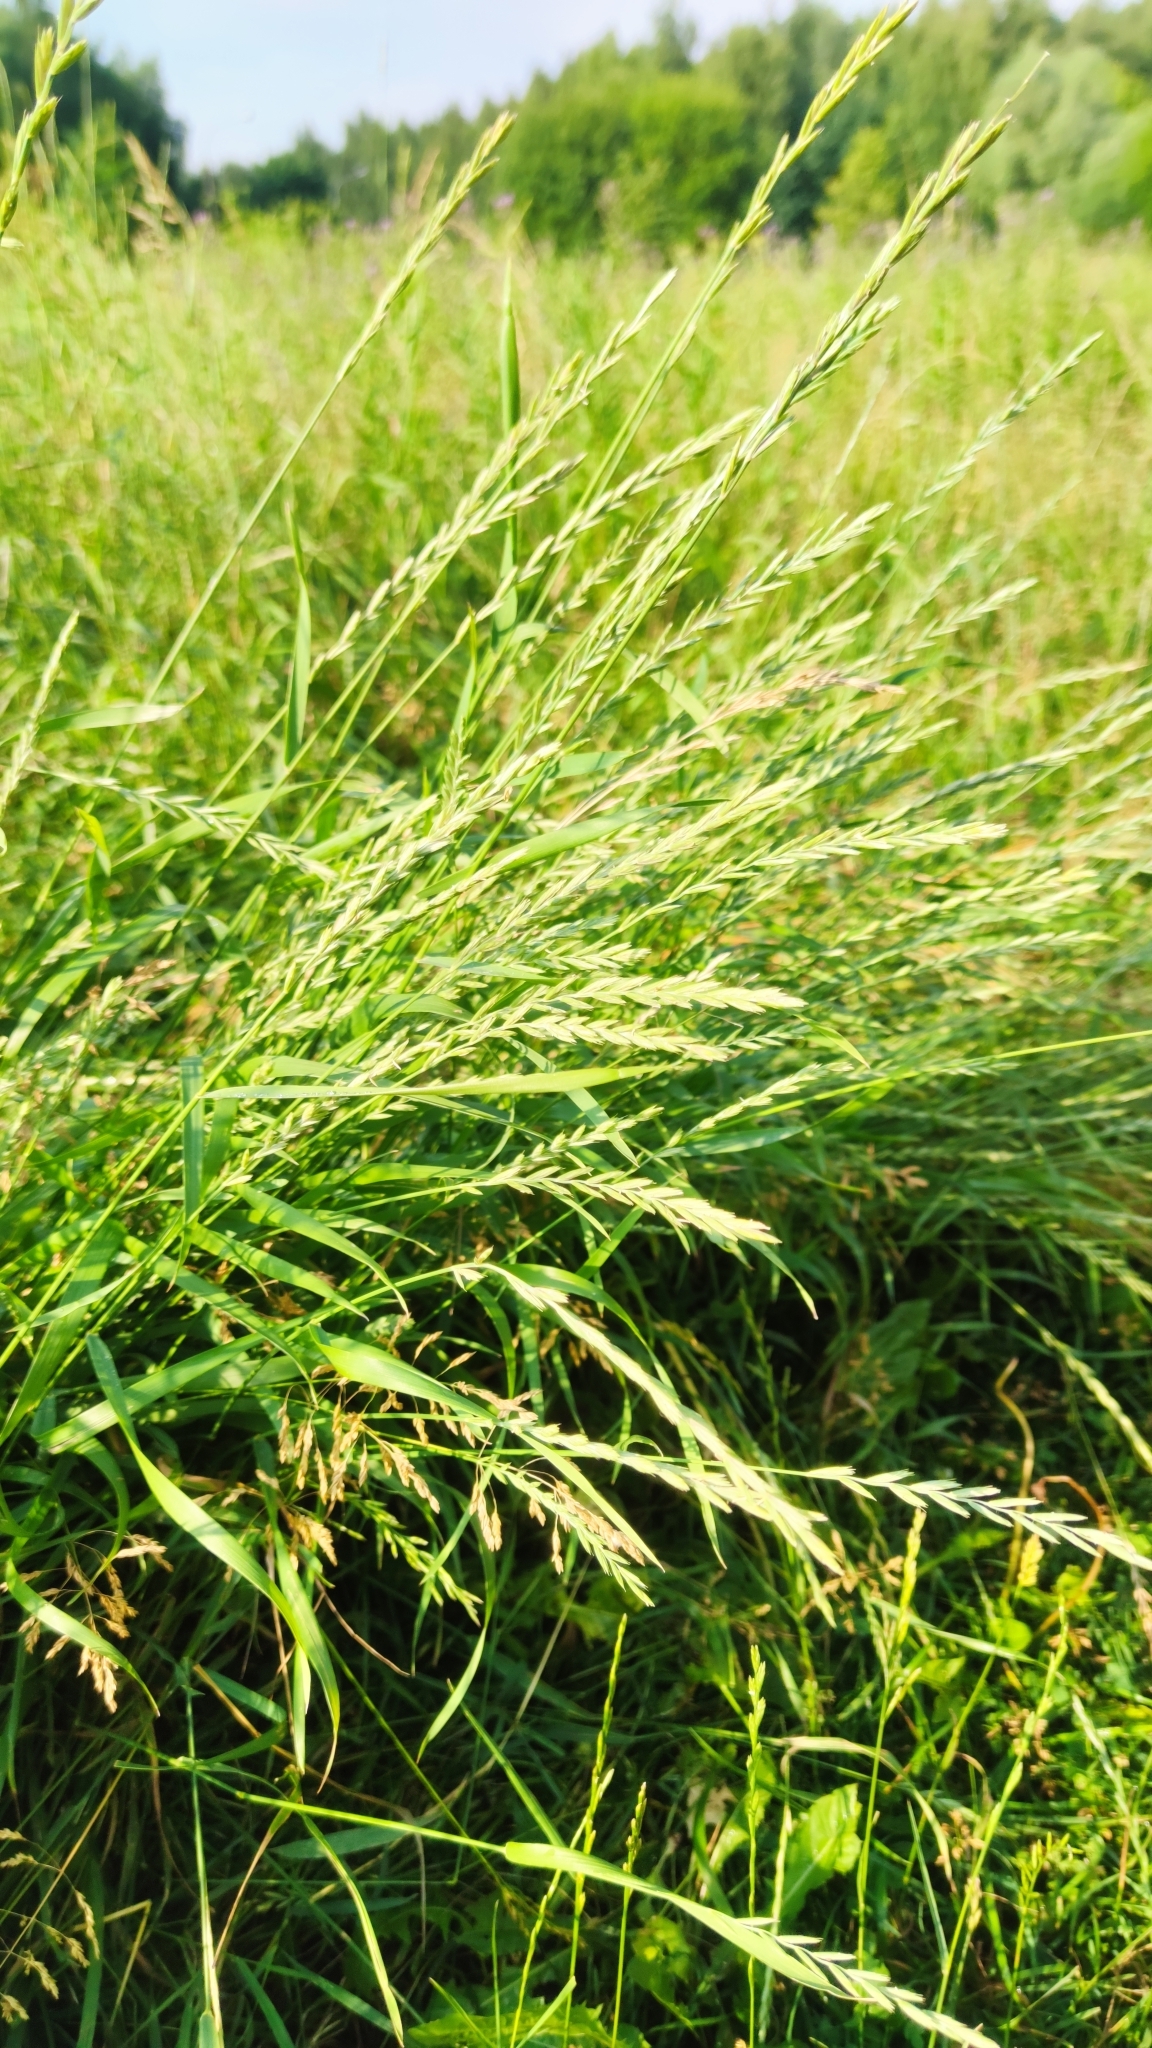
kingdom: Plantae
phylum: Tracheophyta
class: Liliopsida
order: Poales
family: Poaceae
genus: Elymus
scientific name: Elymus repens
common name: Quackgrass
